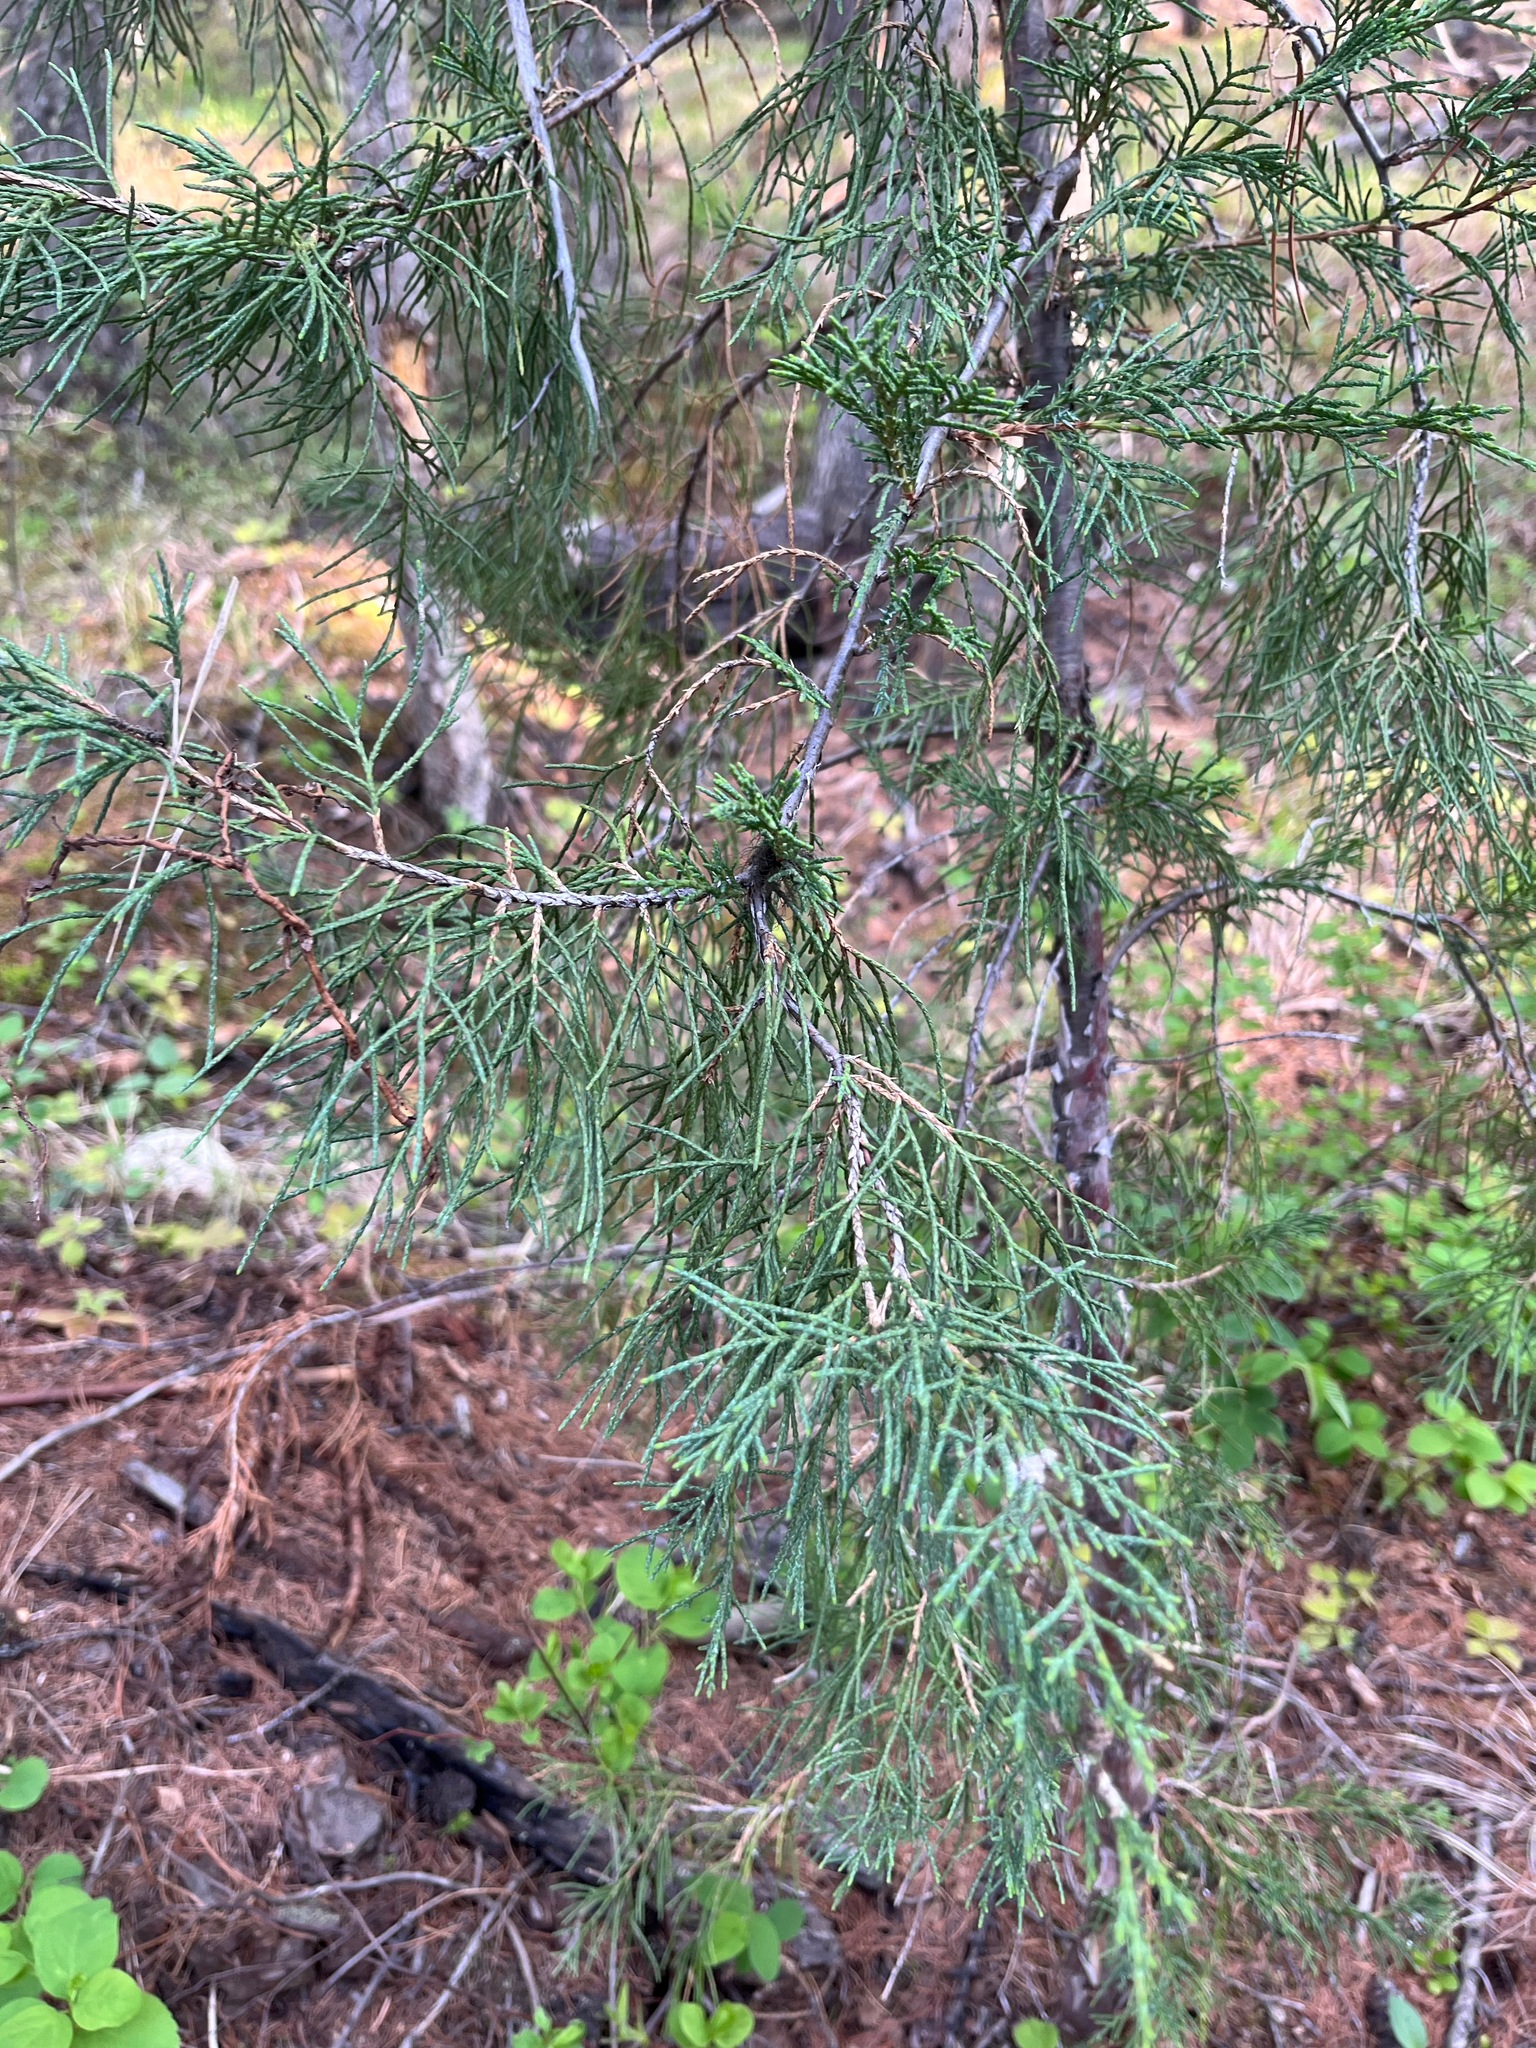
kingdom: Plantae
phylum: Tracheophyta
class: Pinopsida
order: Pinales
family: Cupressaceae
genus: Juniperus
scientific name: Juniperus scopulorum
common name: Rocky mountain juniper
